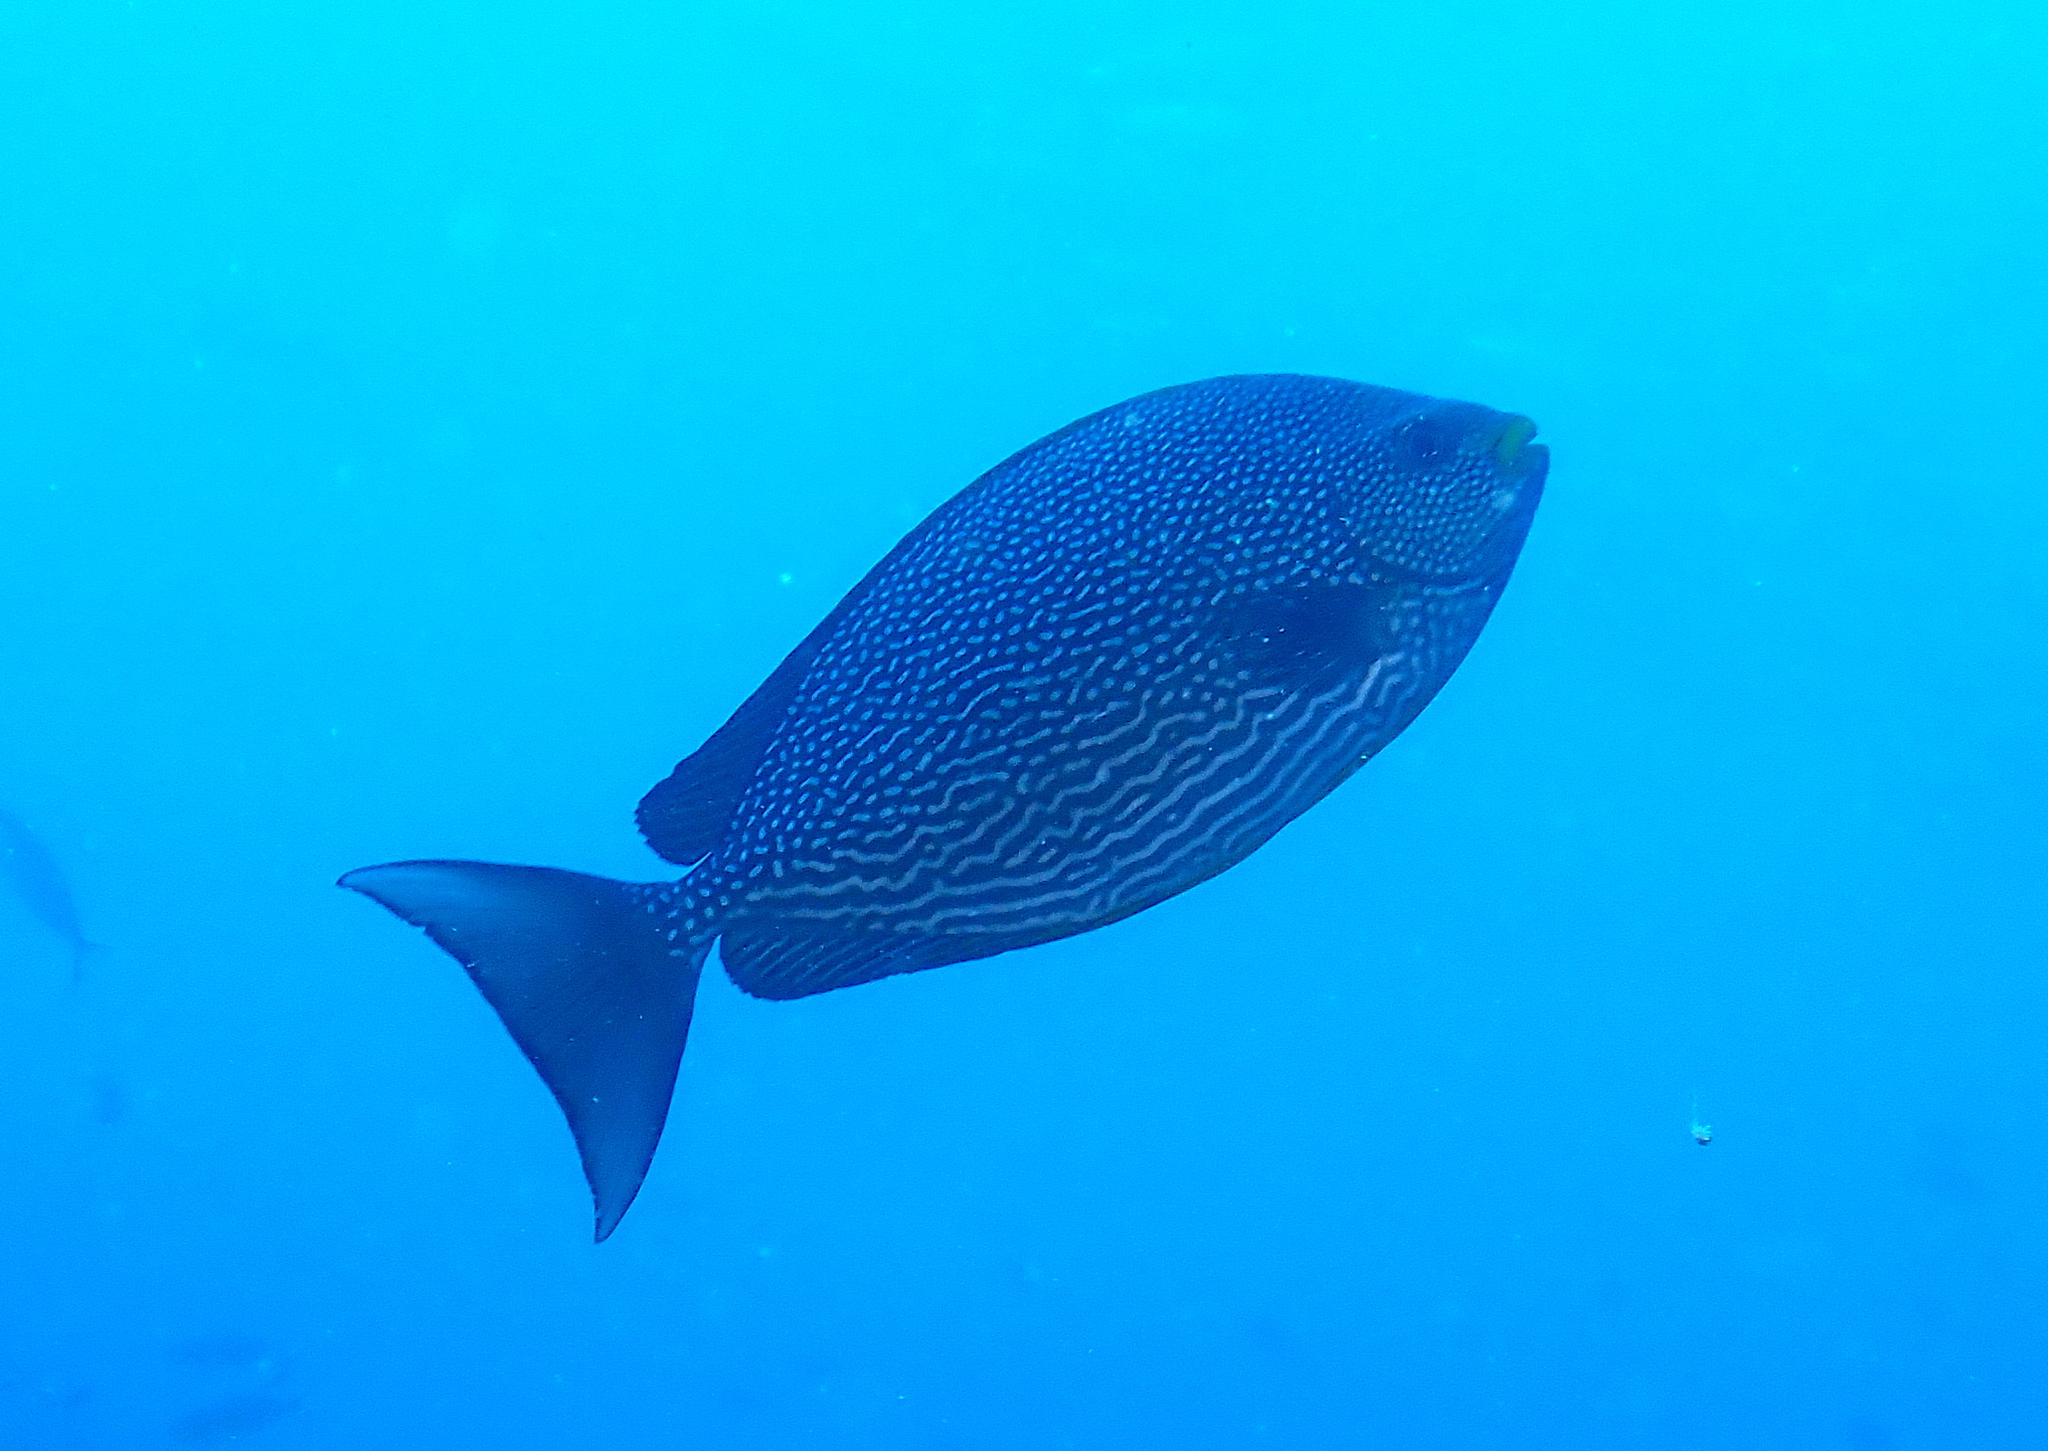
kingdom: Animalia
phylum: Chordata
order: Perciformes
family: Siganidae
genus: Siganus
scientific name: Siganus javus
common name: Java rabbitfish
